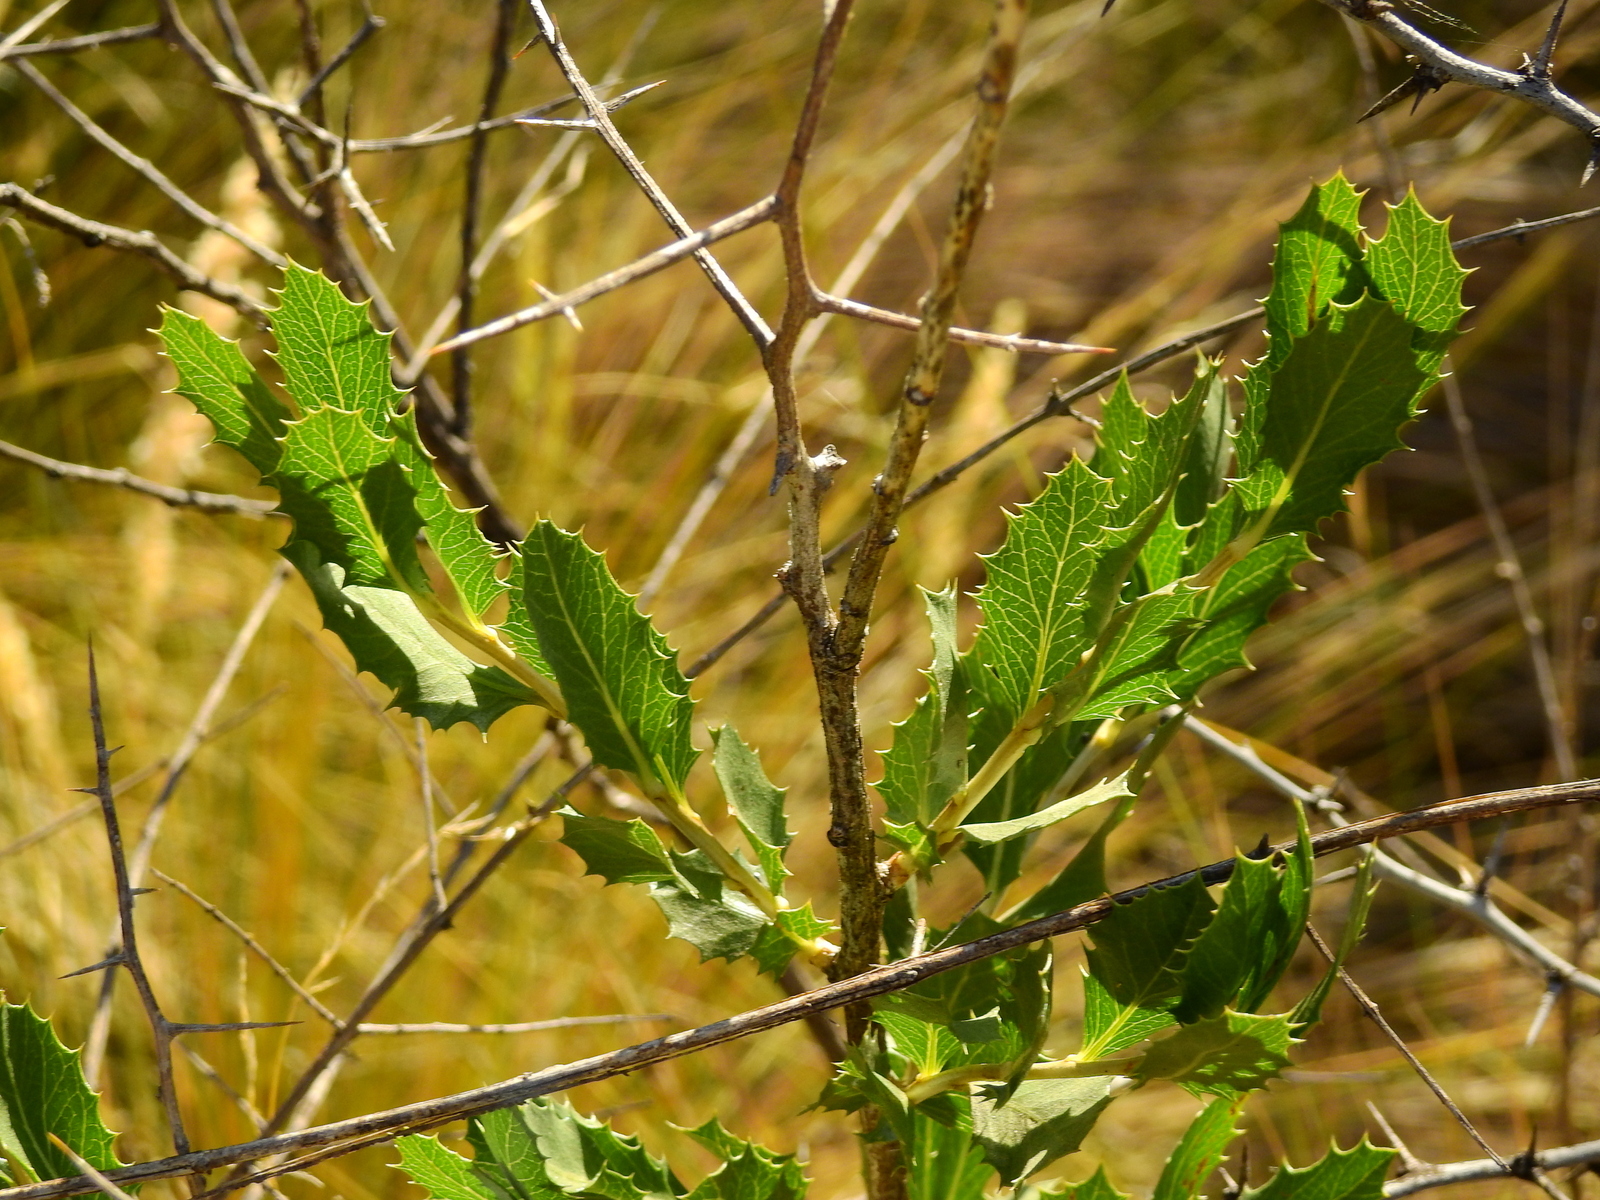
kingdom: Plantae
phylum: Tracheophyta
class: Magnoliopsida
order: Asterales
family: Asteraceae
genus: Proustia
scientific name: Proustia cuneifolia
